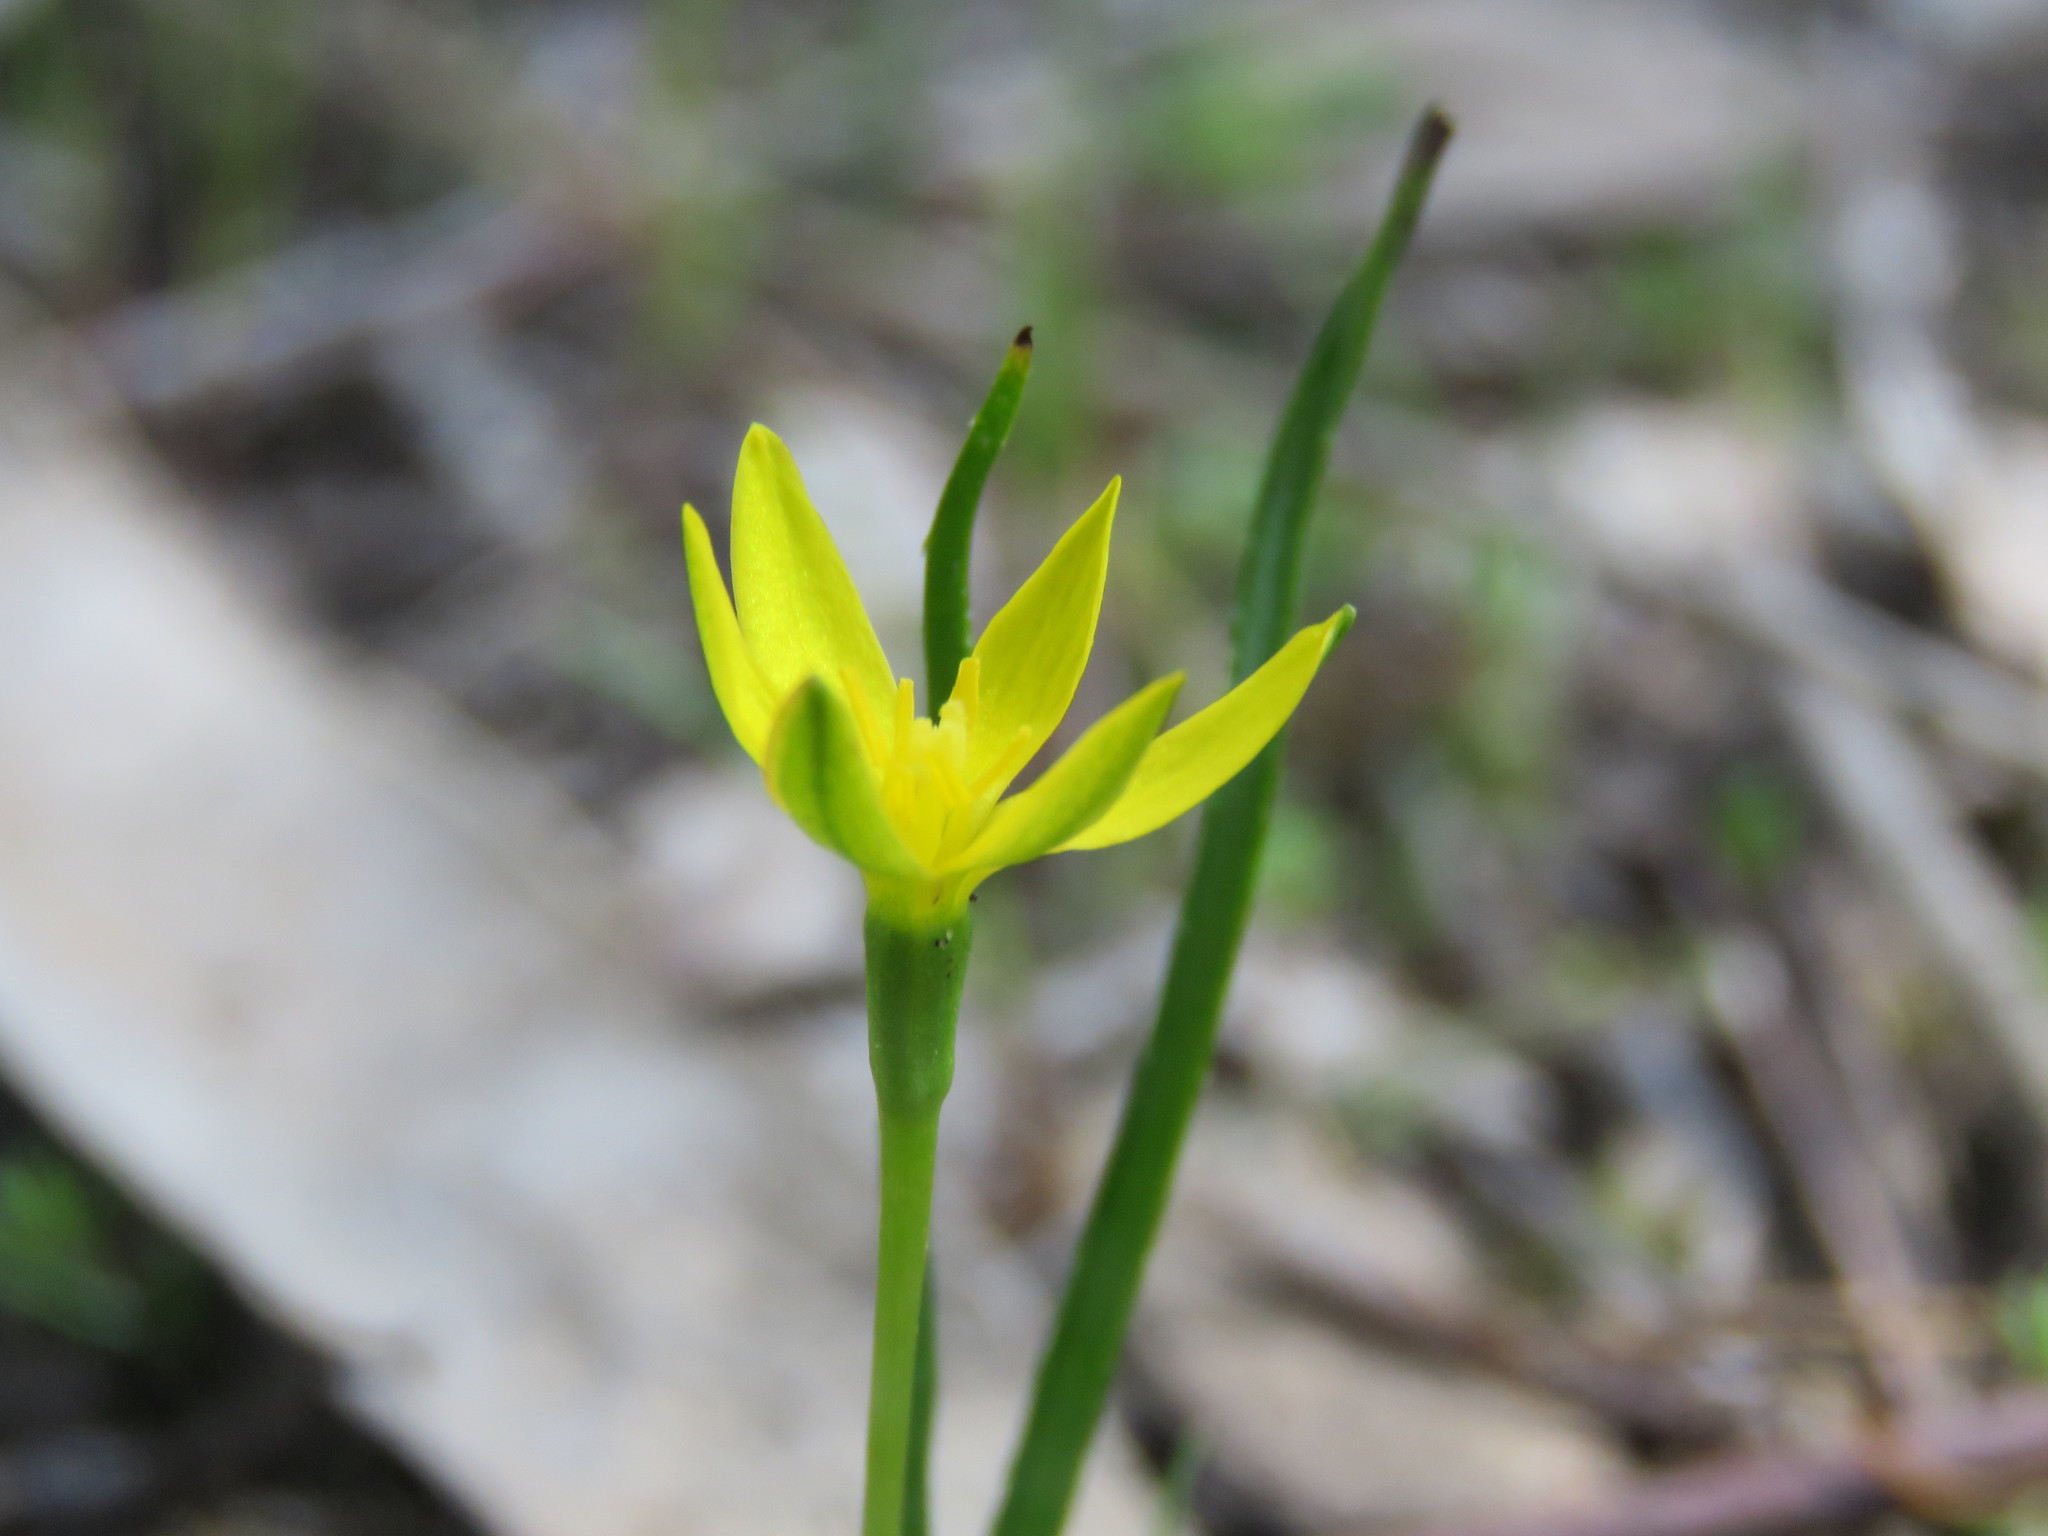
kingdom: Plantae
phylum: Tracheophyta
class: Liliopsida
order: Asparagales
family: Hypoxidaceae
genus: Pauridia
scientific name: Pauridia vaginata
